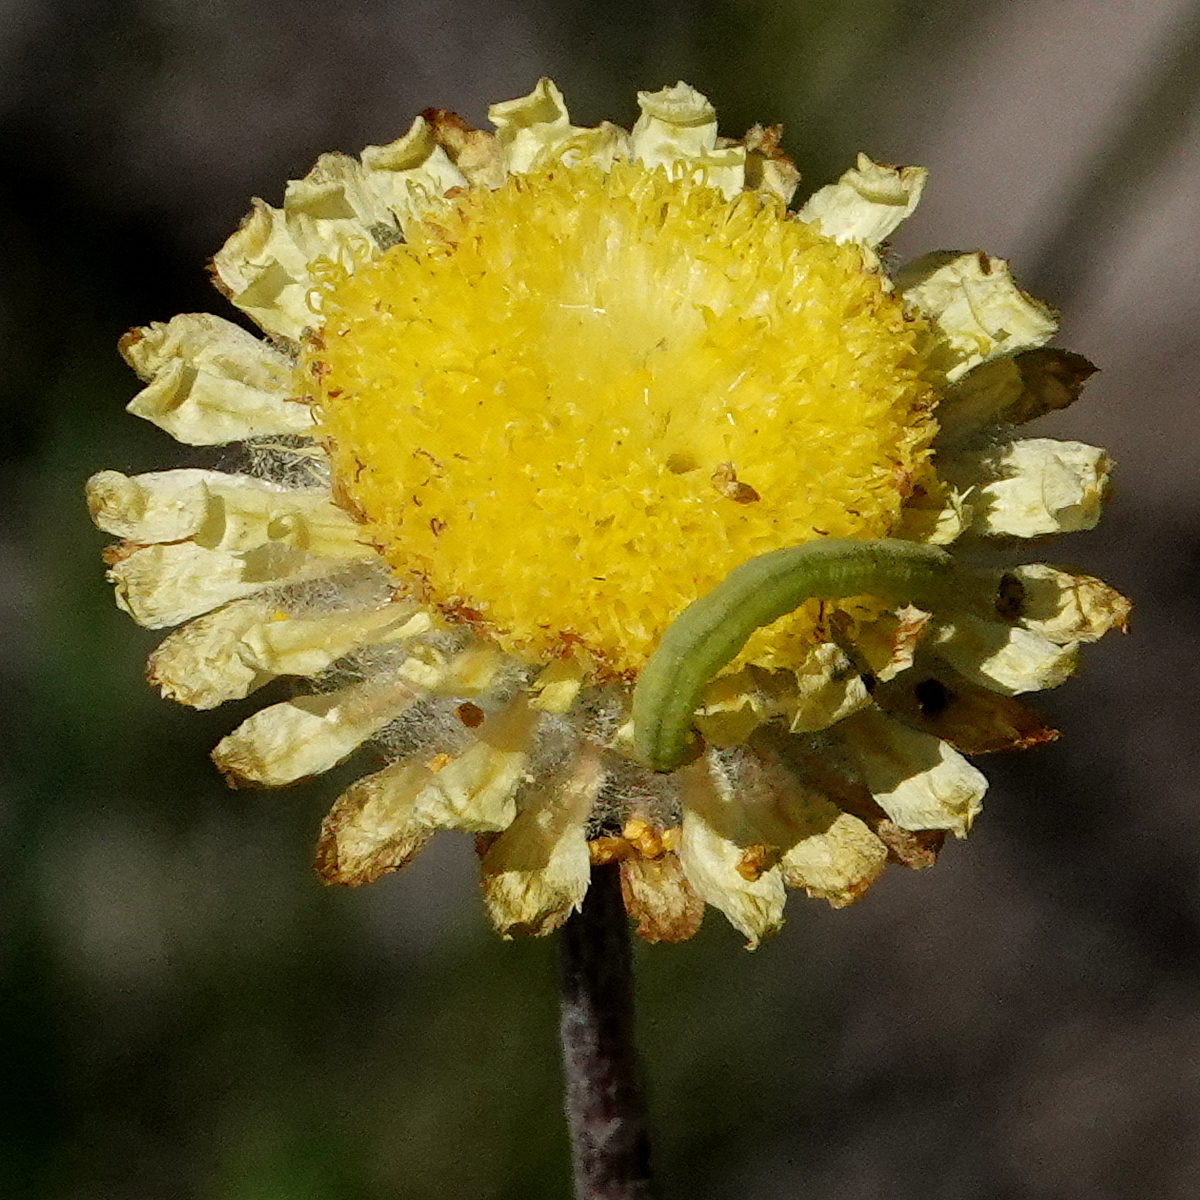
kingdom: Plantae
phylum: Tracheophyta
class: Magnoliopsida
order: Asterales
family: Asteraceae
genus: Coronidium
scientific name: Coronidium scorpioides
